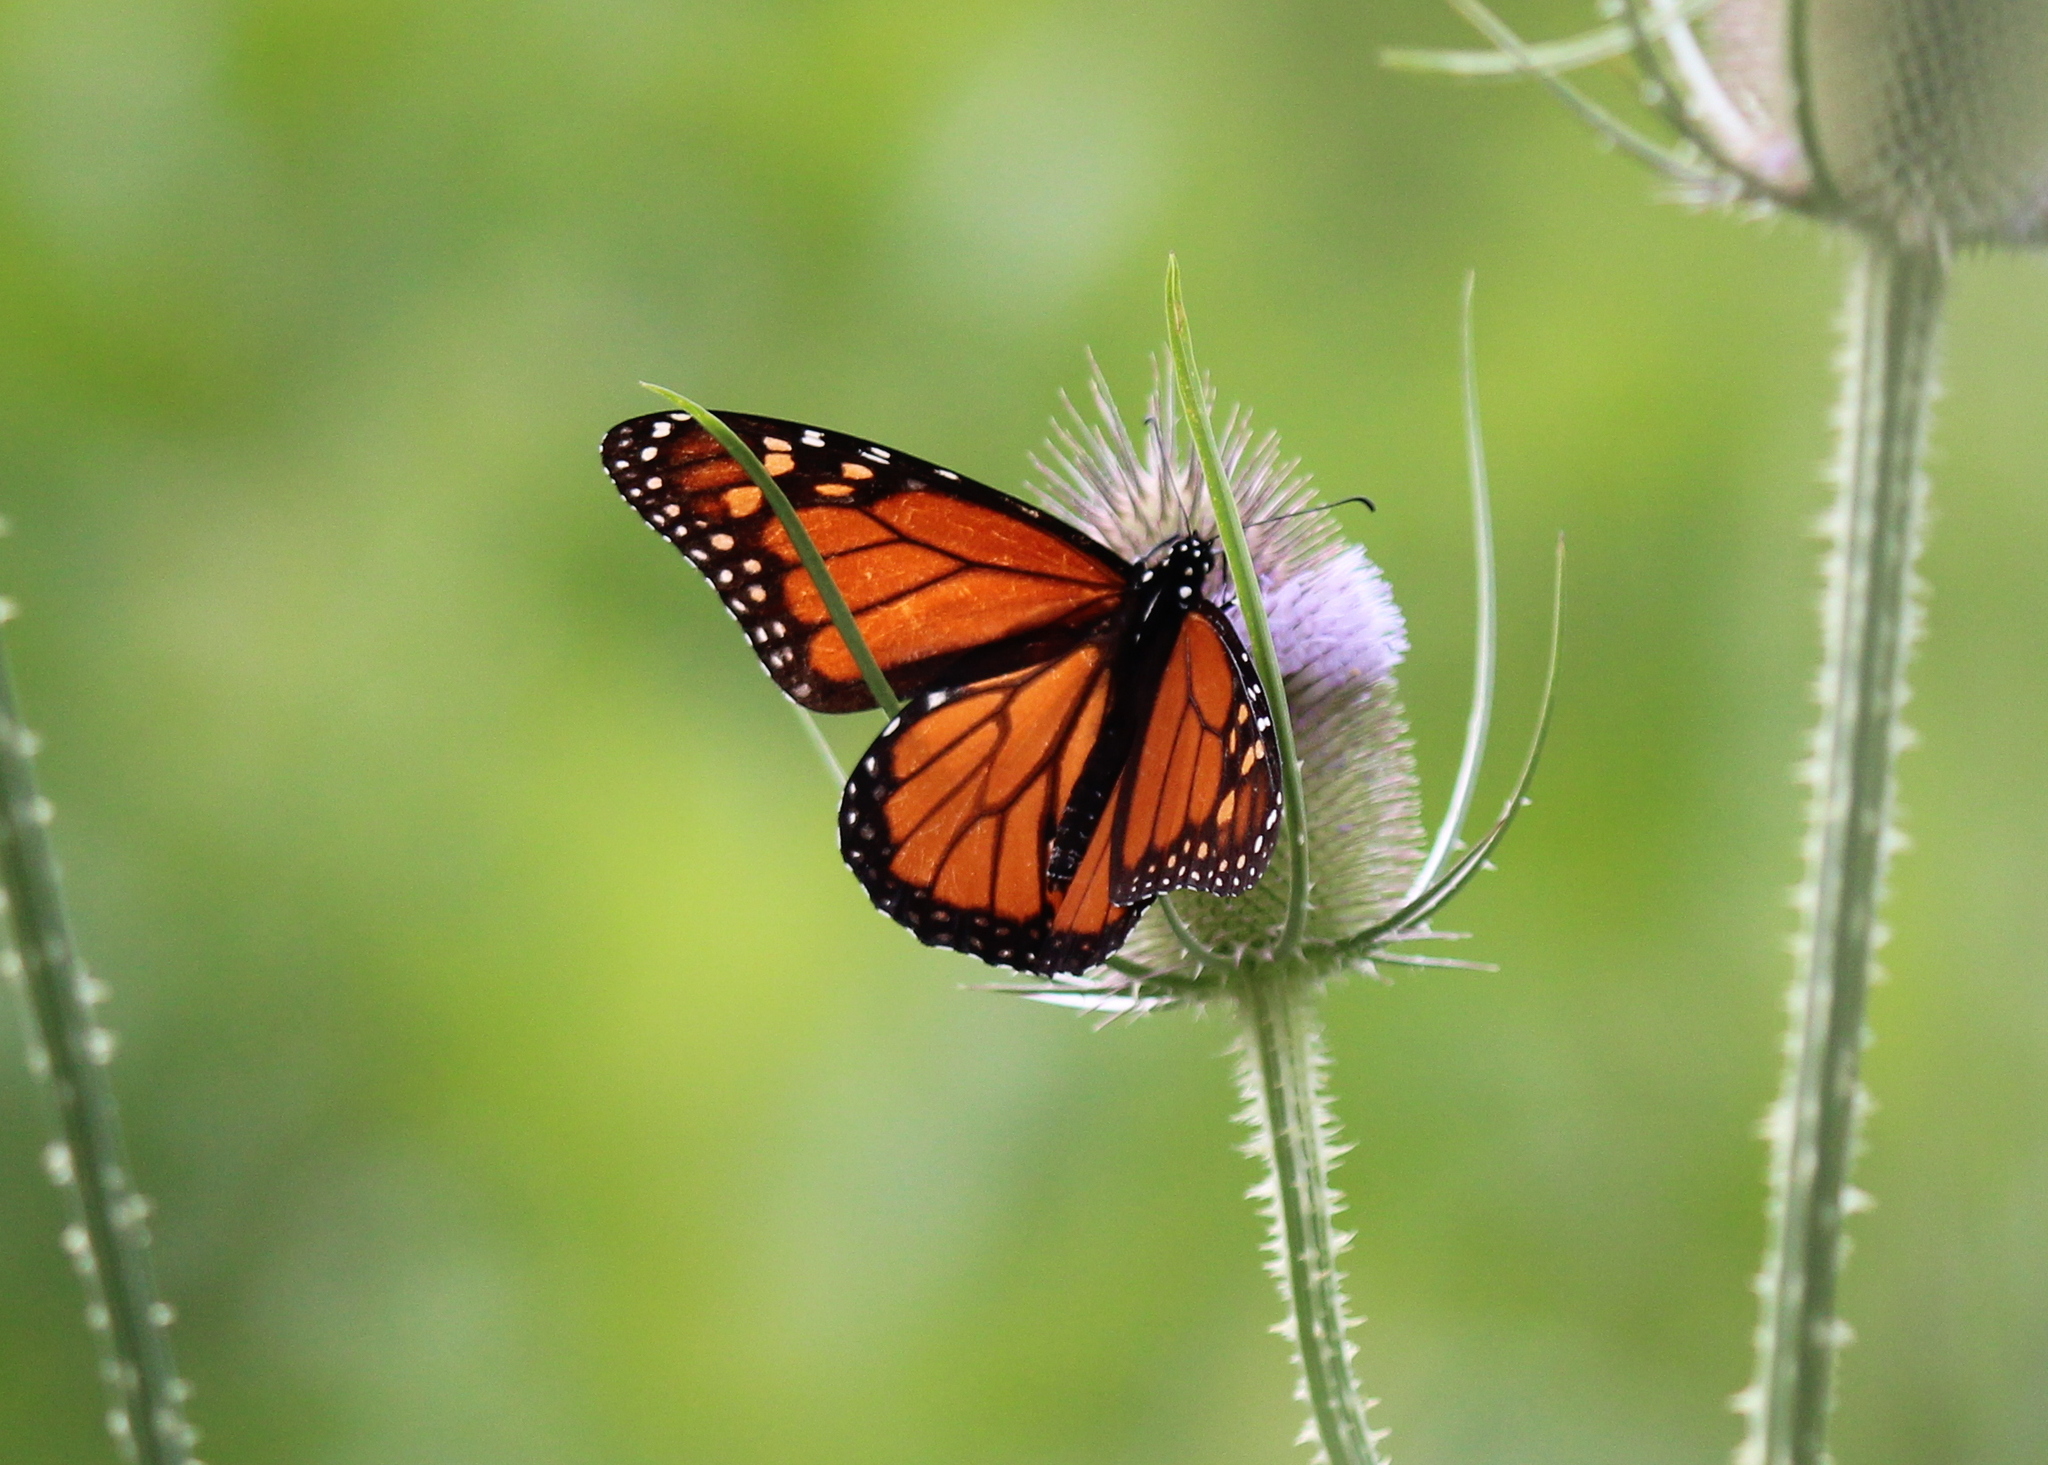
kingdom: Animalia
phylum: Arthropoda
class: Insecta
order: Lepidoptera
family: Nymphalidae
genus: Danaus
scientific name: Danaus plexippus
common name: Monarch
